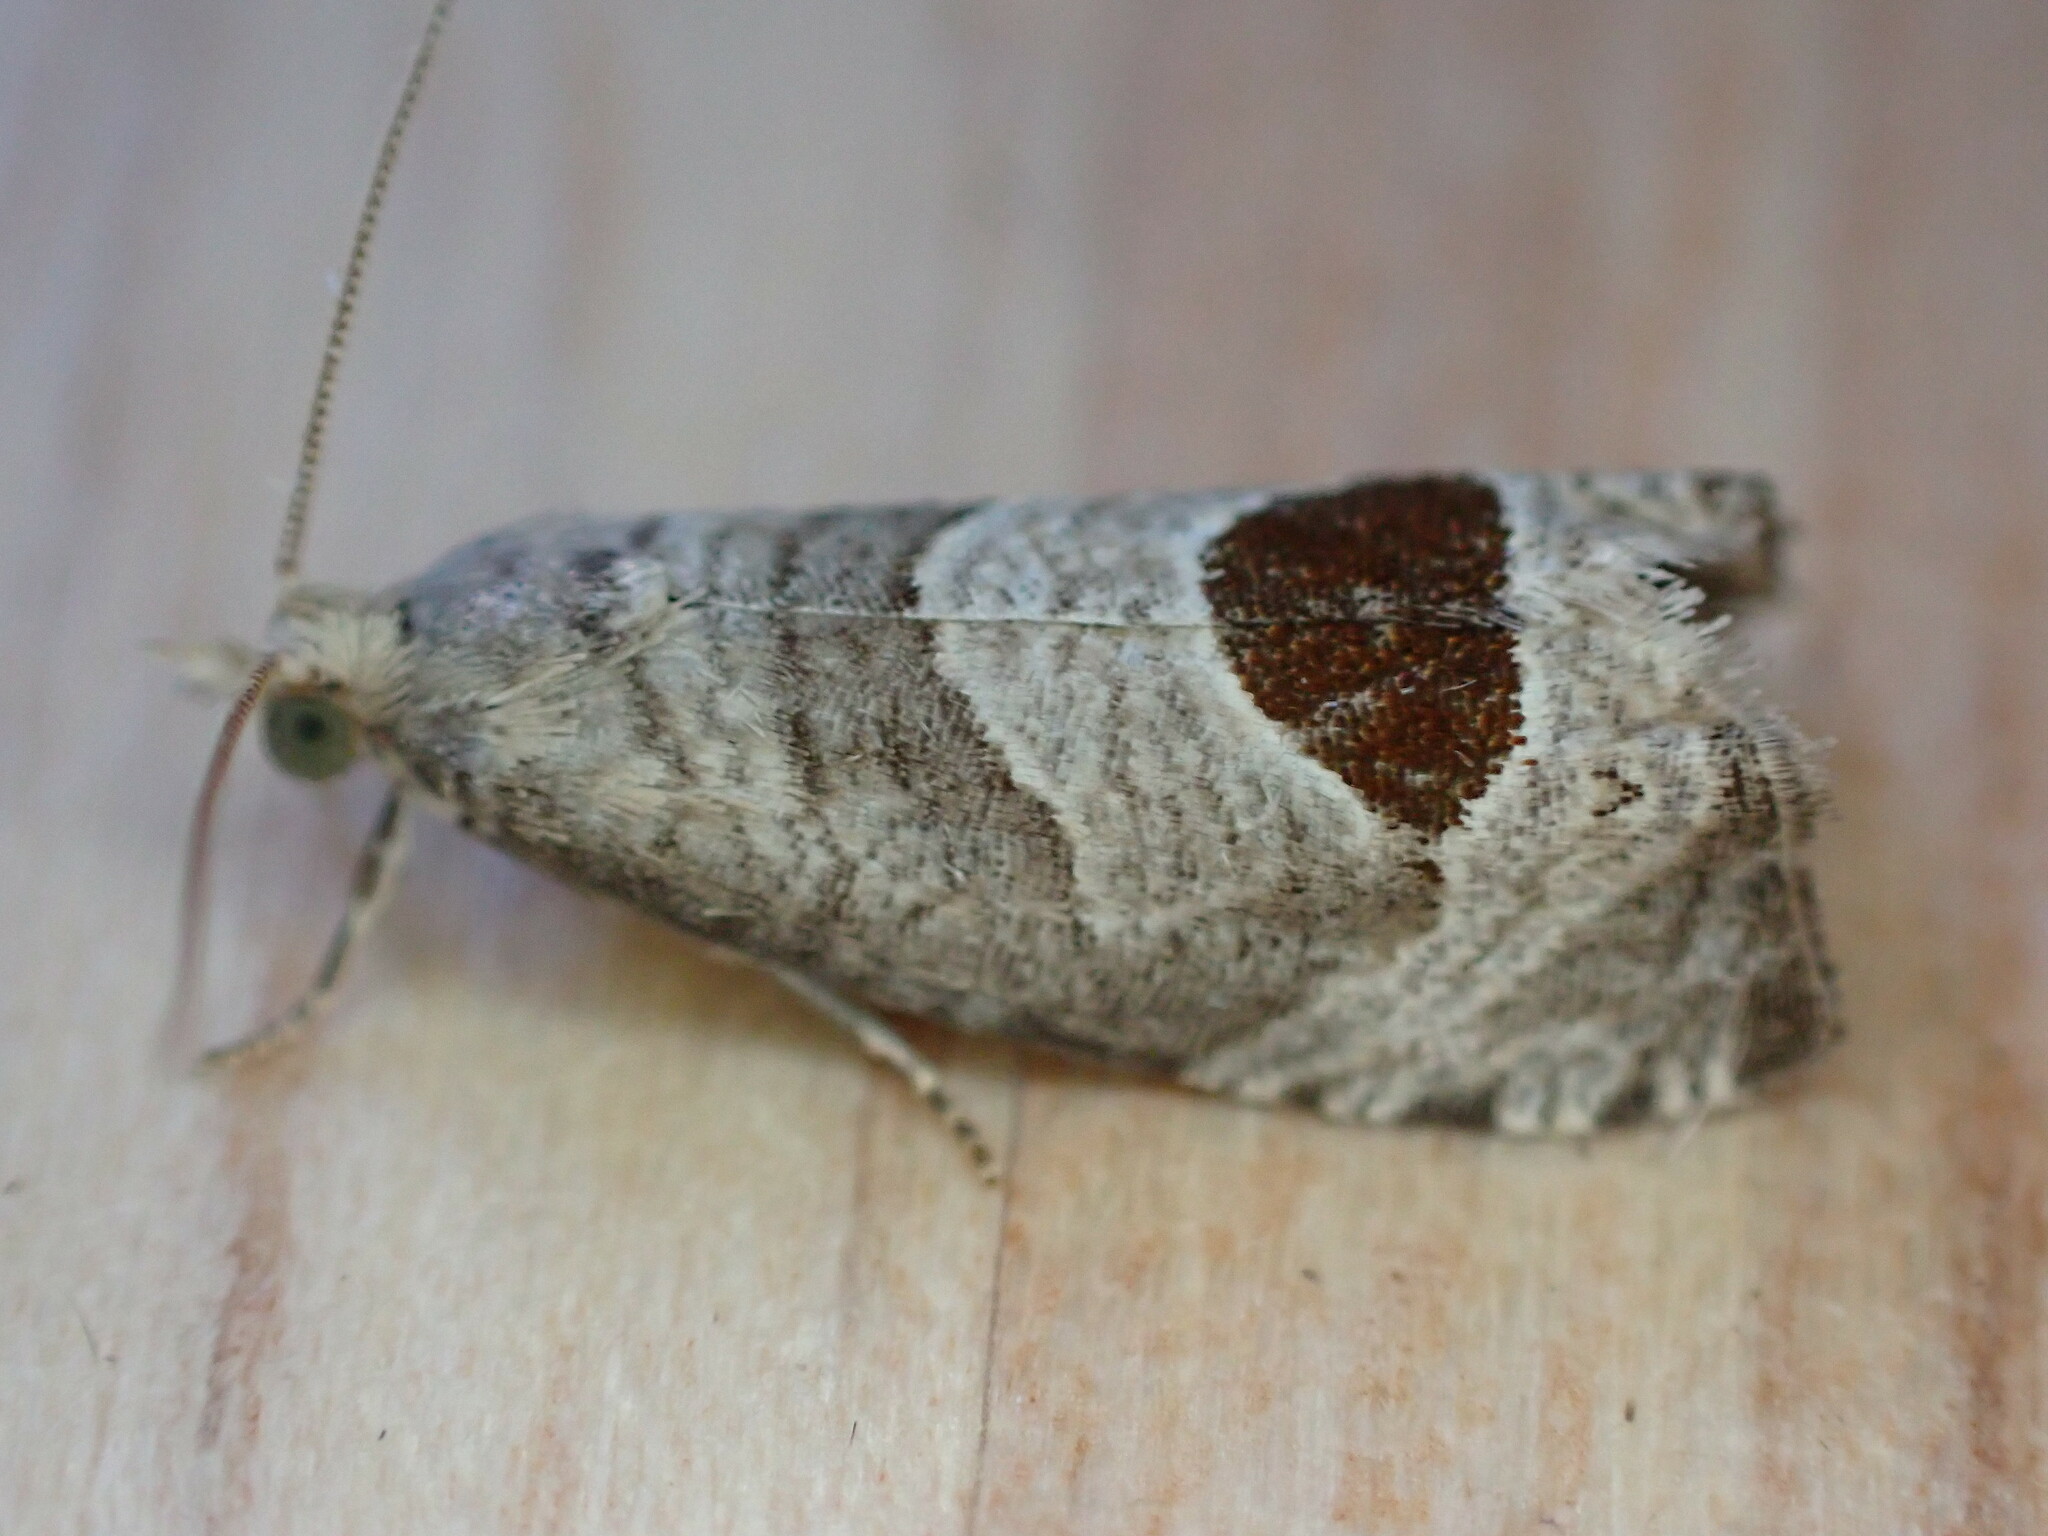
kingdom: Animalia
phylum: Arthropoda
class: Insecta
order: Lepidoptera
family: Tortricidae
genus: Notocelia
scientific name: Notocelia uddmanniana
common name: Bramble shoot moth
